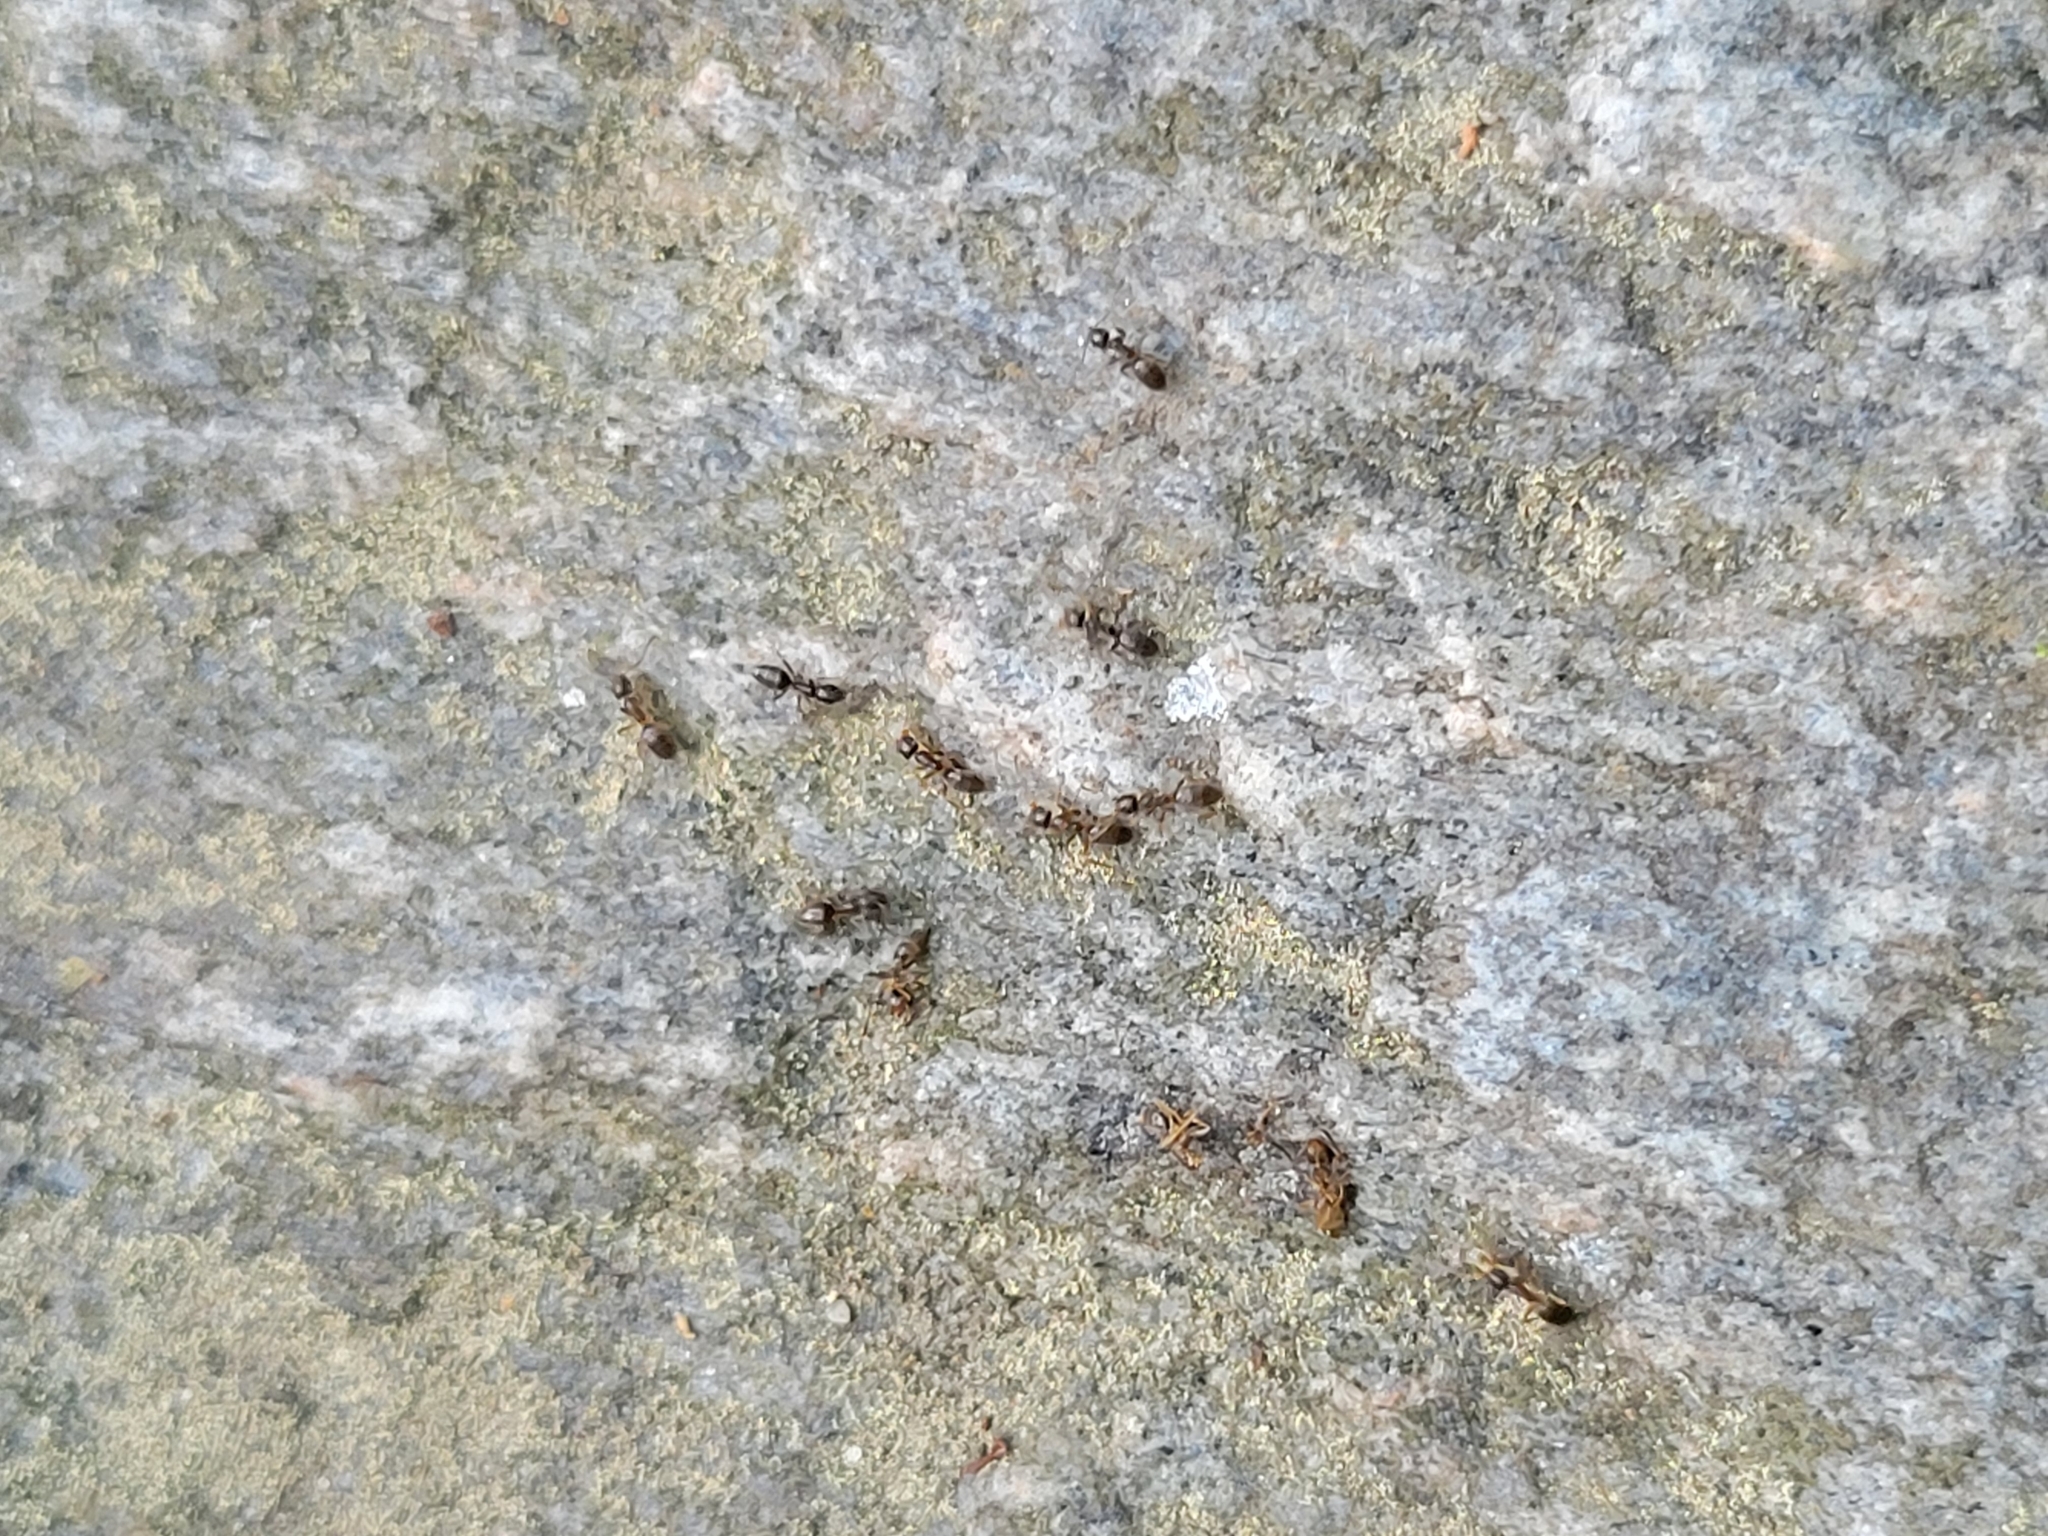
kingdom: Animalia
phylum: Arthropoda
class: Insecta
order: Hymenoptera
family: Formicidae
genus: Tapinoma
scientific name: Tapinoma sessile
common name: Odorous house ant
